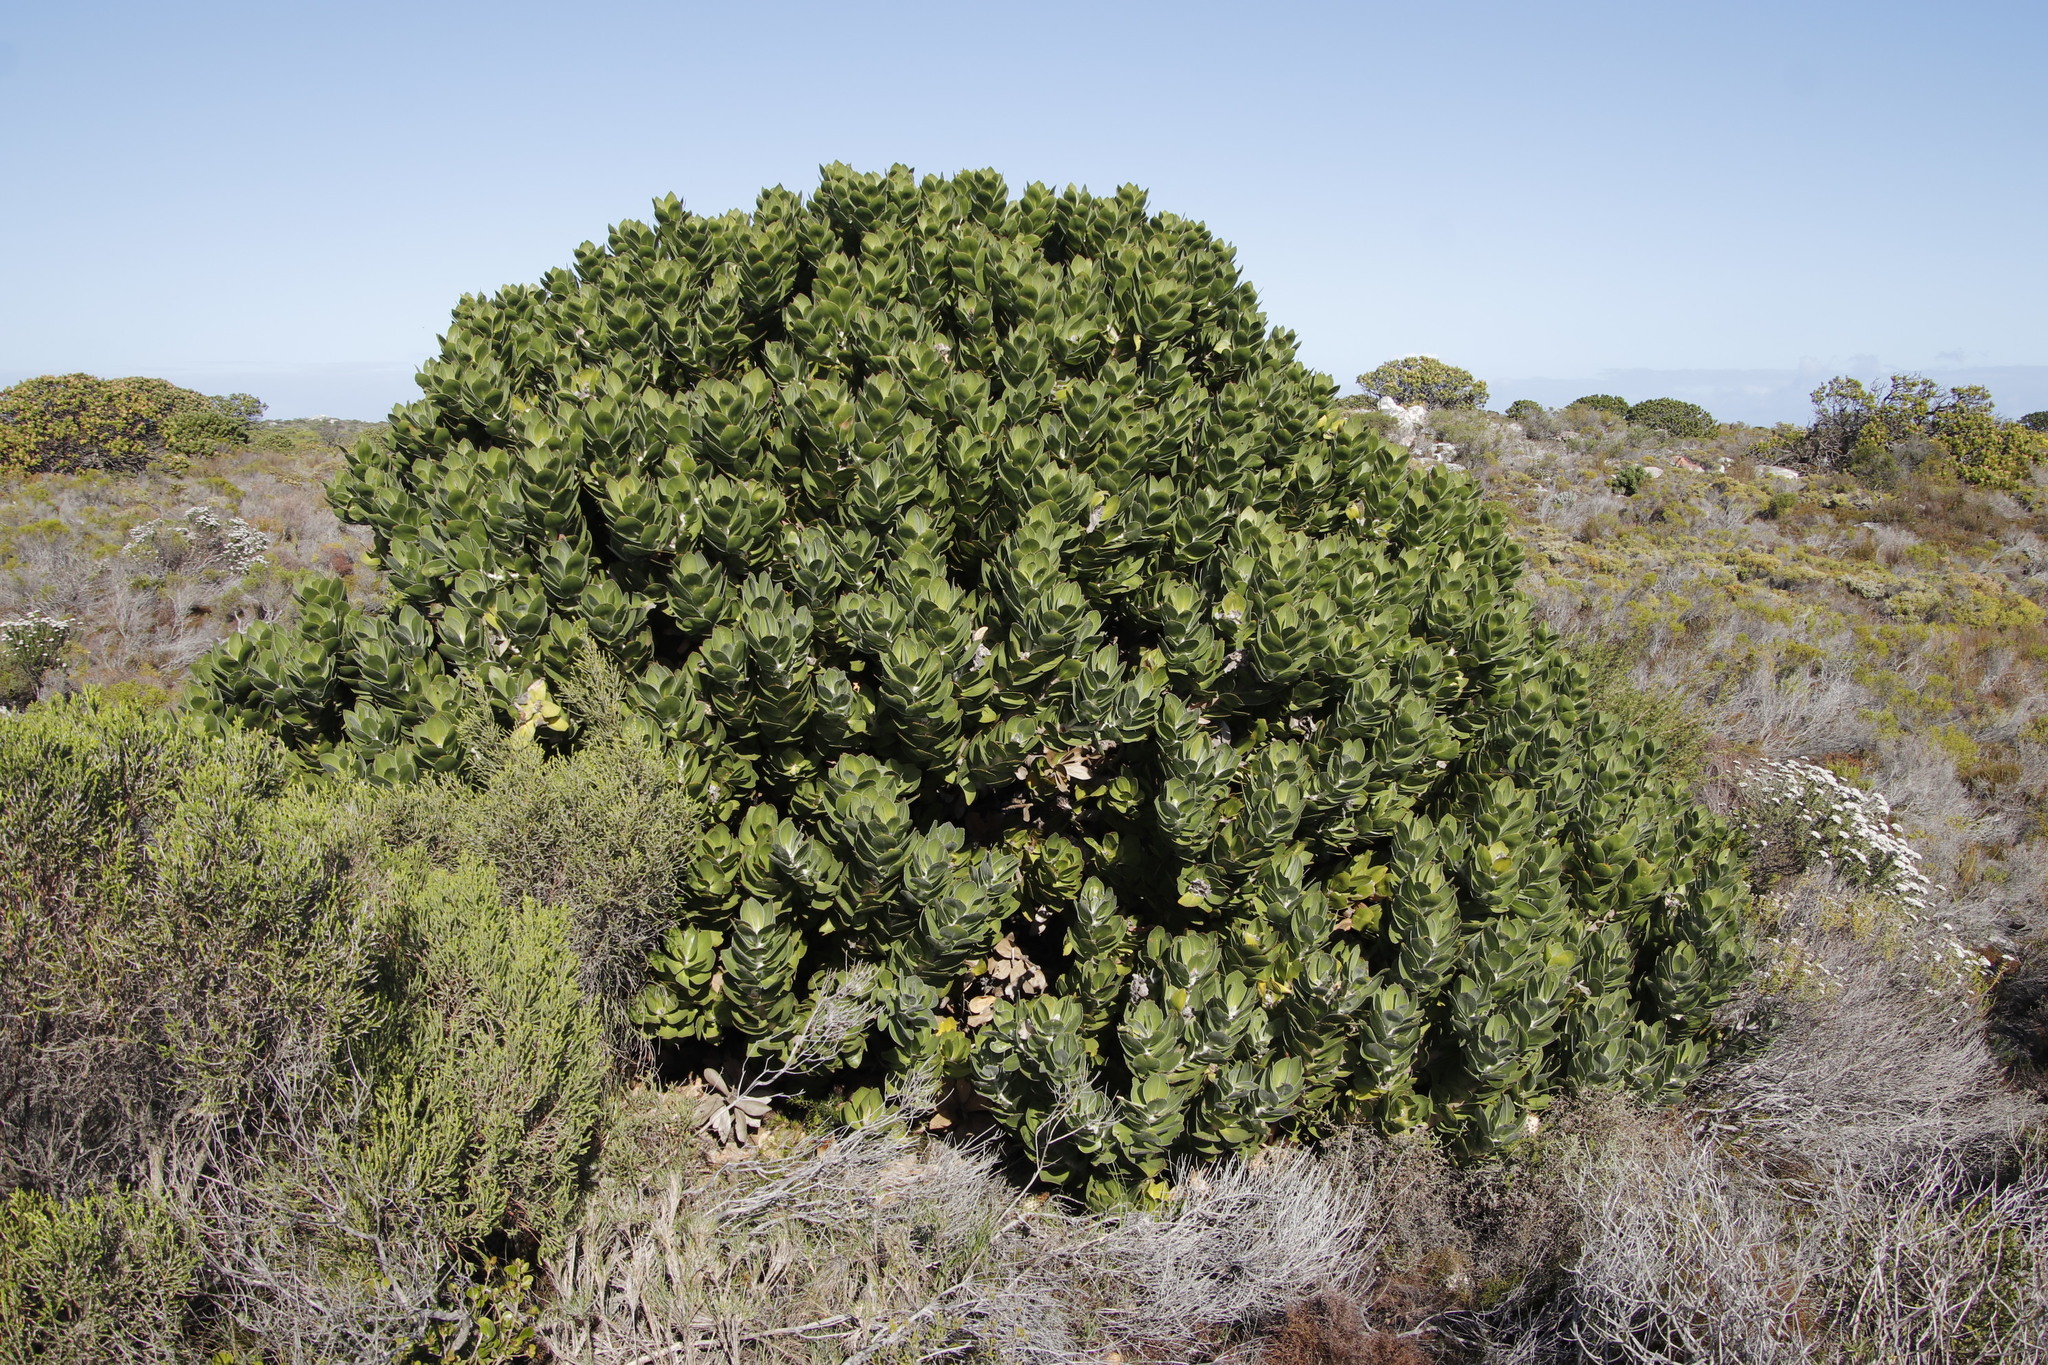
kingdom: Plantae
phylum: Tracheophyta
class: Magnoliopsida
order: Proteales
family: Proteaceae
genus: Leucospermum
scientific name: Leucospermum conocarpodendron
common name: Tree pincushion
